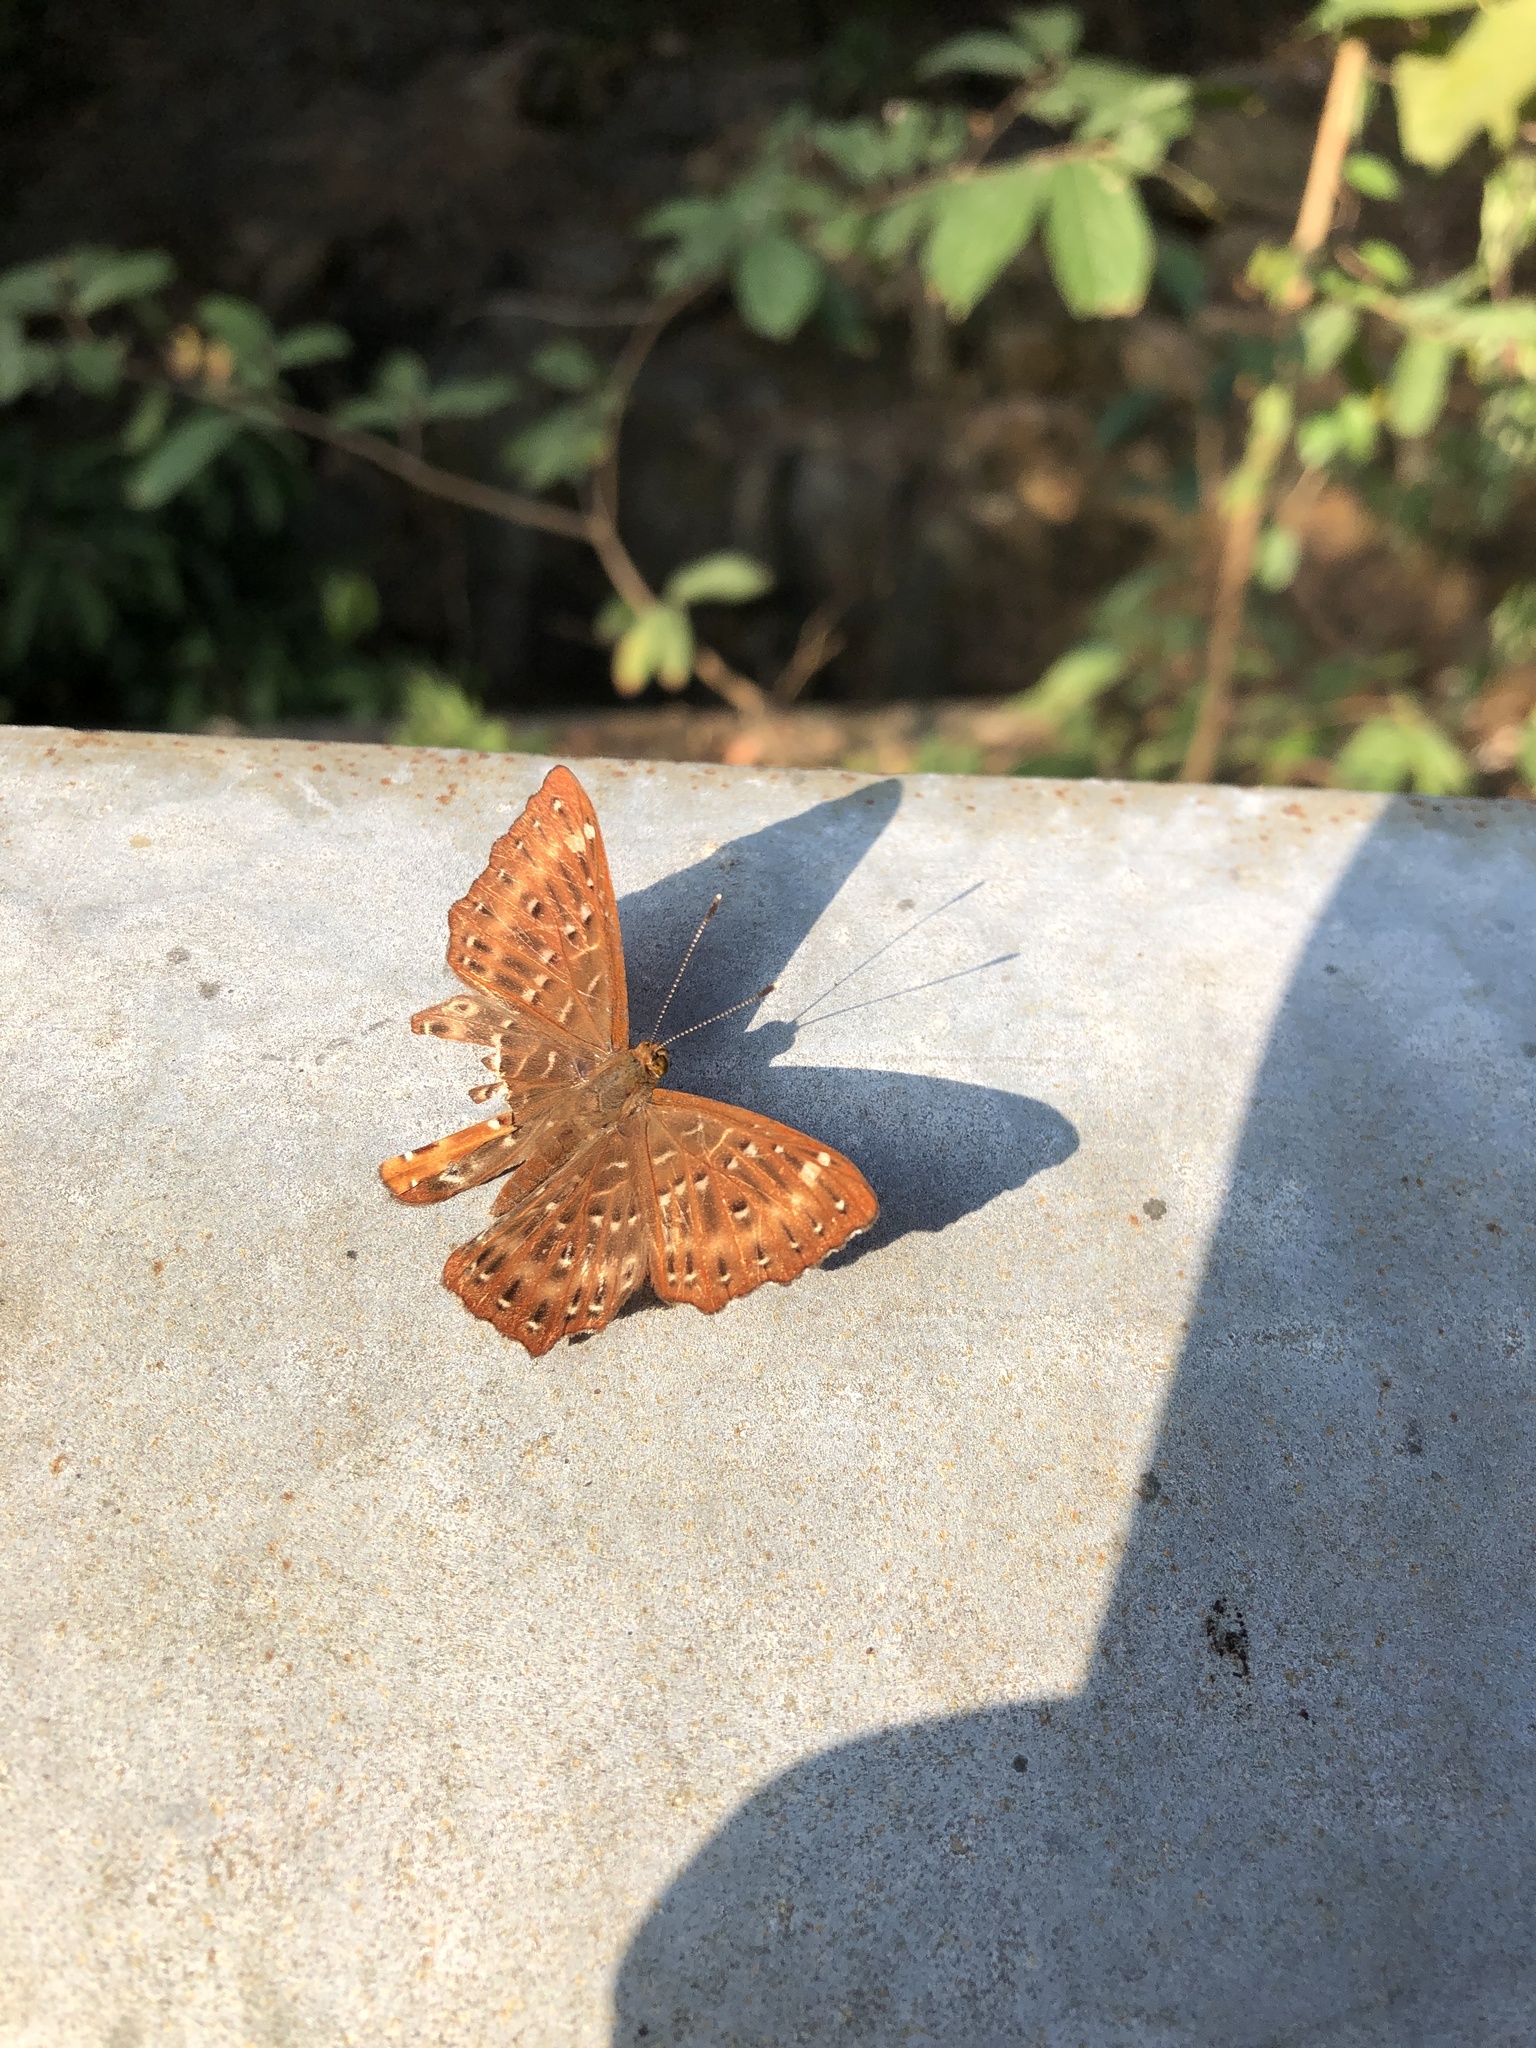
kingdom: Animalia
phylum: Arthropoda
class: Insecta
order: Lepidoptera
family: Riodinidae
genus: Zemeros
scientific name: Zemeros flegyas
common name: Punchinello
